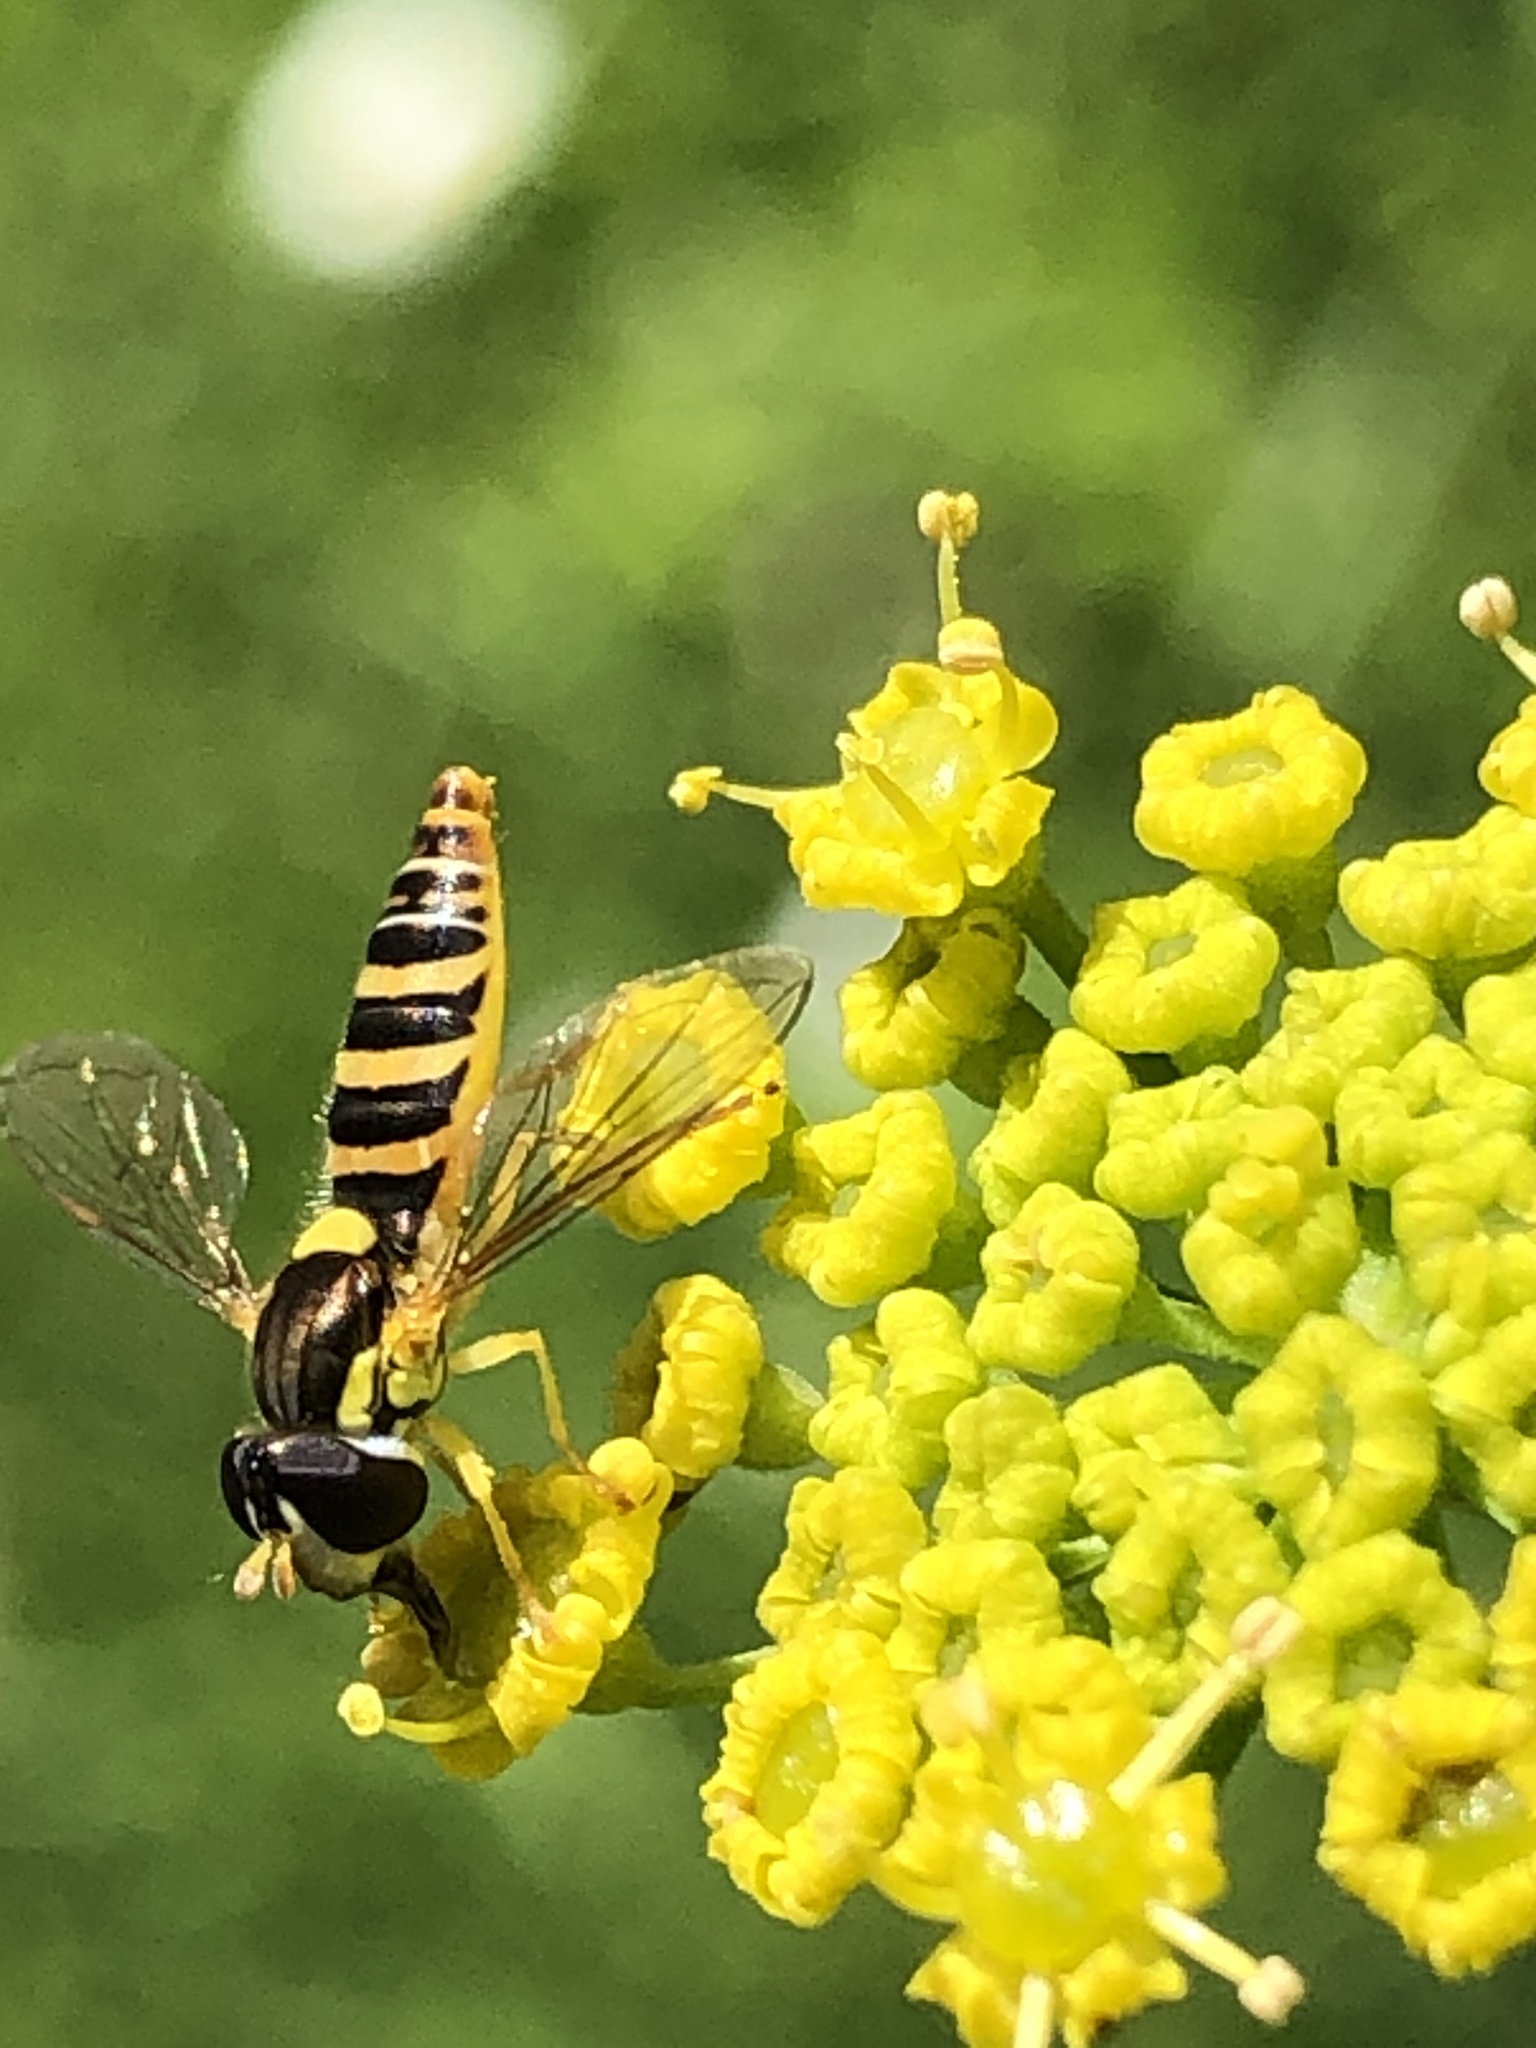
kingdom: Animalia
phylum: Arthropoda
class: Insecta
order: Diptera
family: Syrphidae
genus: Sphaerophoria
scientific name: Sphaerophoria contigua
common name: Tufted globetail
